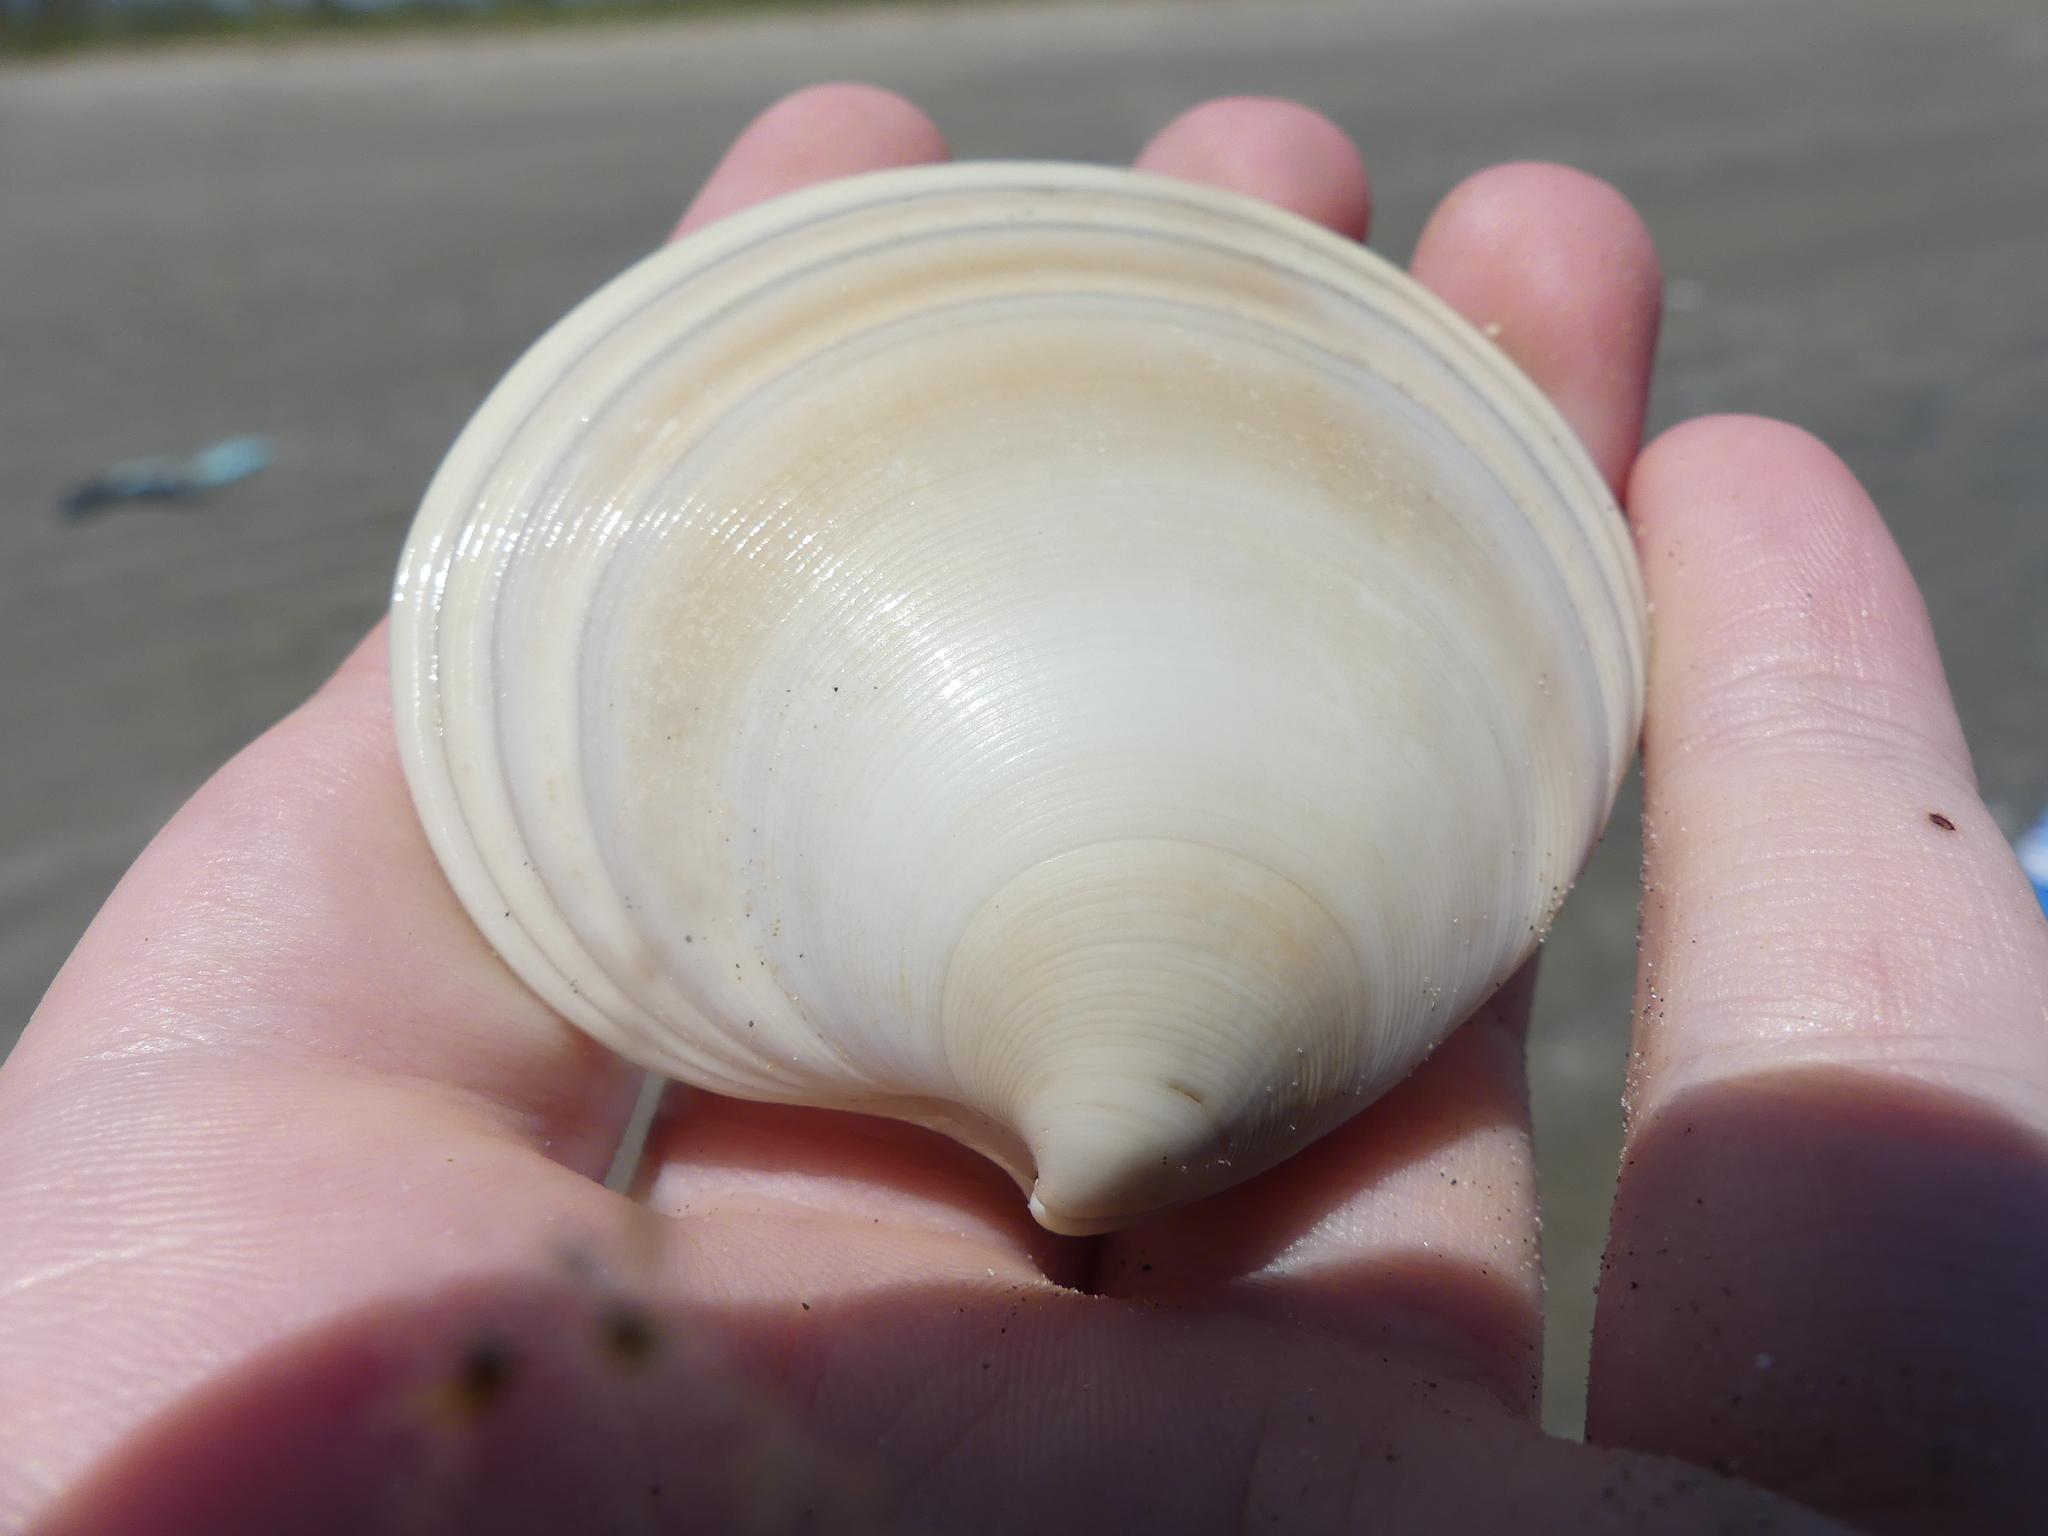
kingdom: Animalia
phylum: Mollusca
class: Bivalvia
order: Venerida
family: Veneridae
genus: Dosinia
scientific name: Dosinia discus
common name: Disk dosinia
